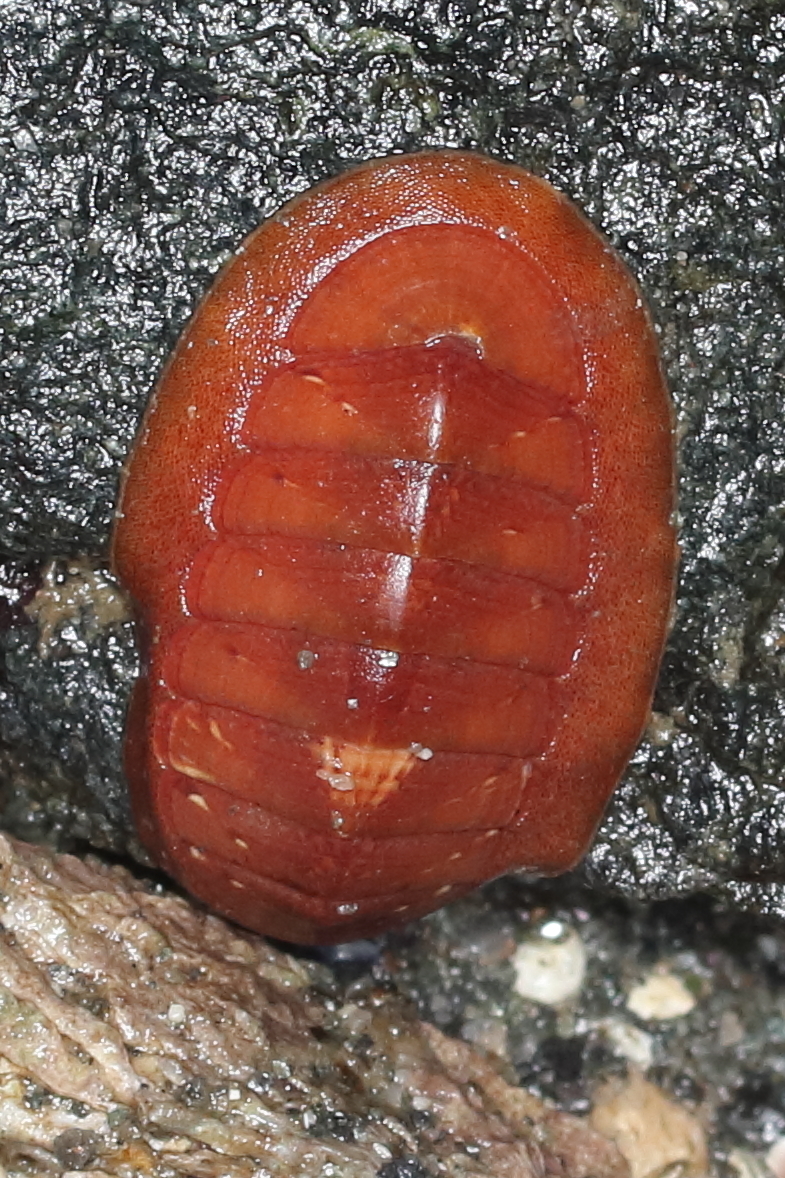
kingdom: Animalia
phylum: Mollusca
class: Polyplacophora
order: Chitonida
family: Ischnochitonidae
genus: Lepidozona
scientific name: Lepidozona interstincta
